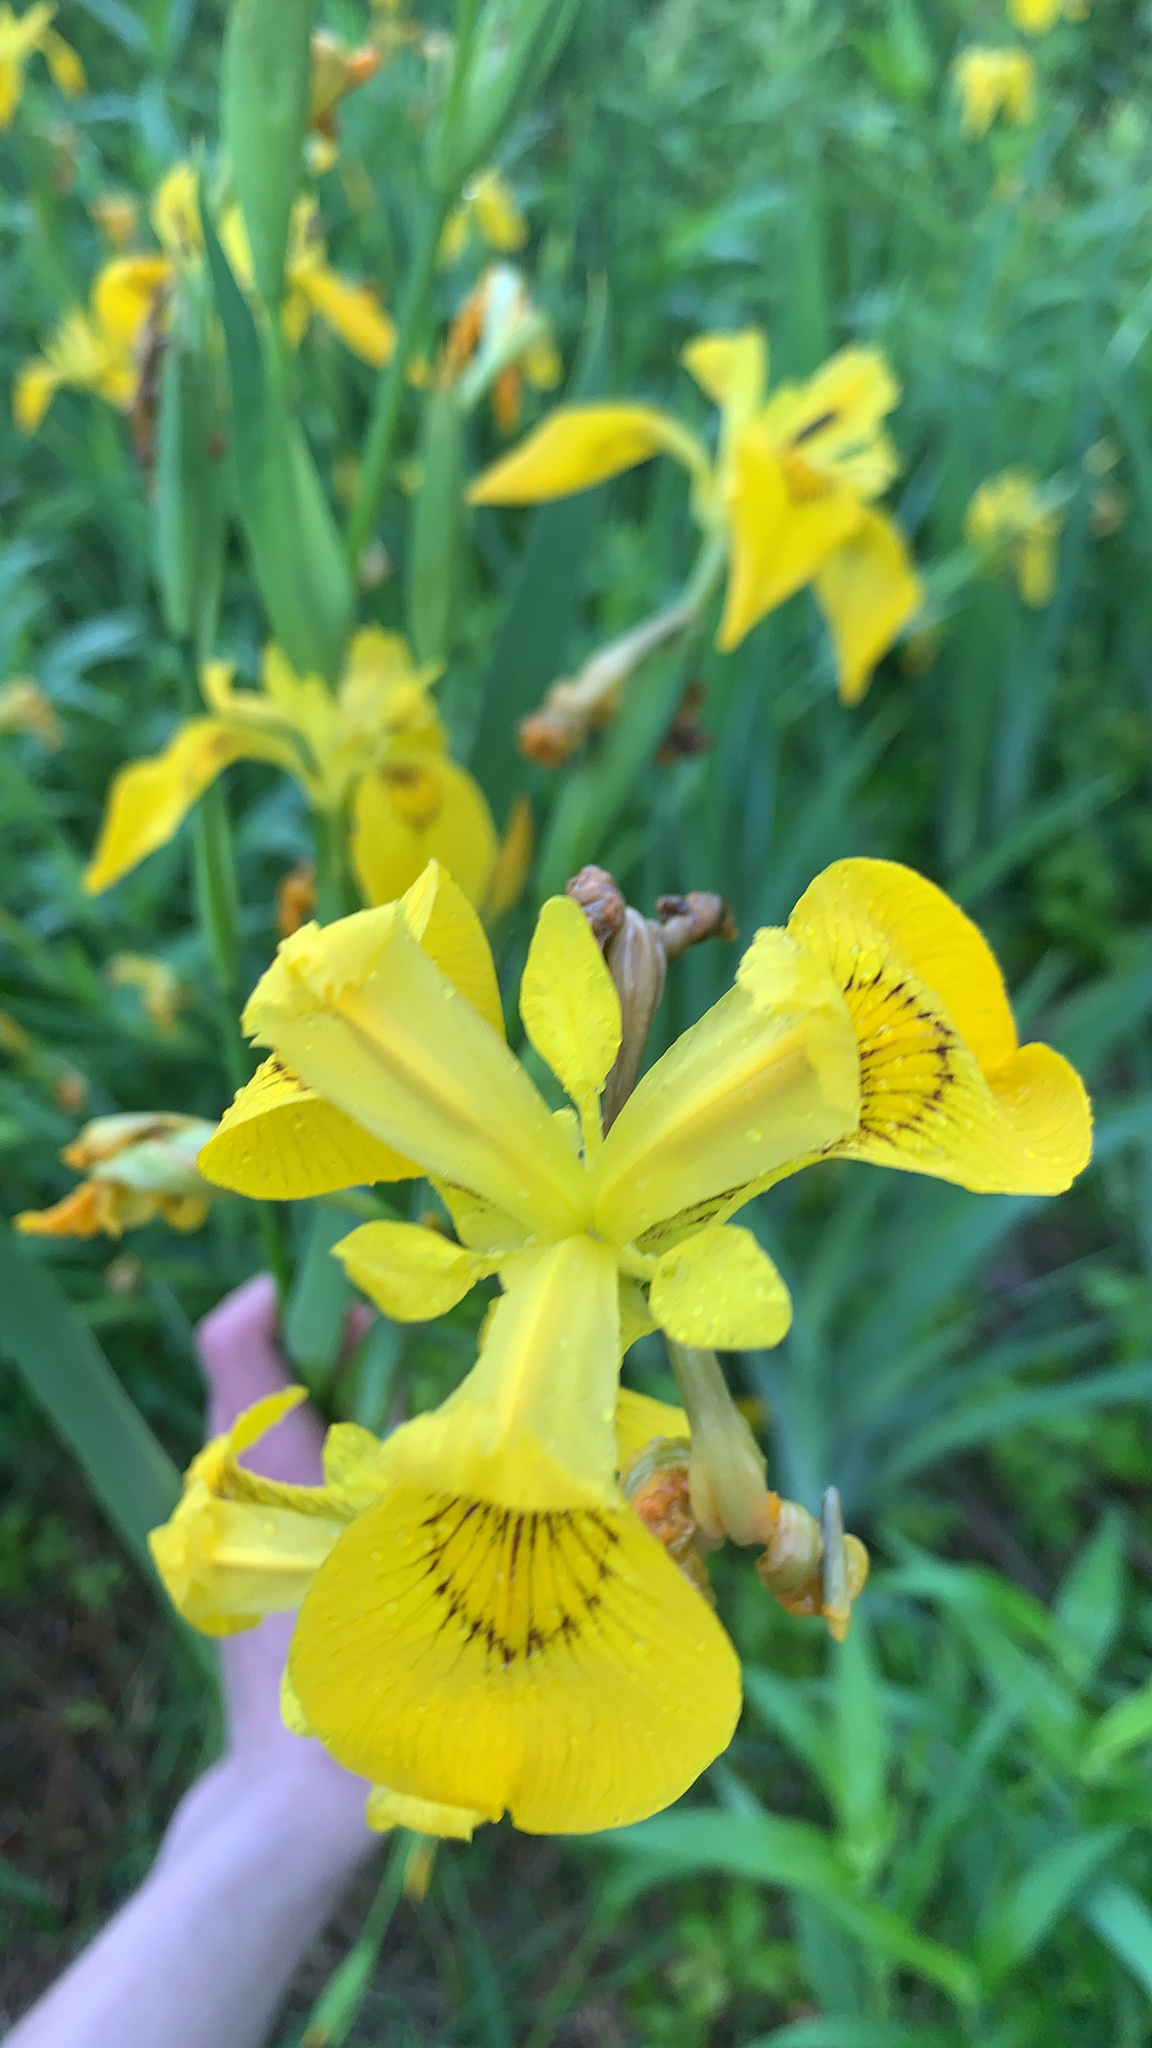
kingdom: Plantae
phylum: Tracheophyta
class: Liliopsida
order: Asparagales
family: Iridaceae
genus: Iris
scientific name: Iris pseudacorus
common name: Yellow flag
